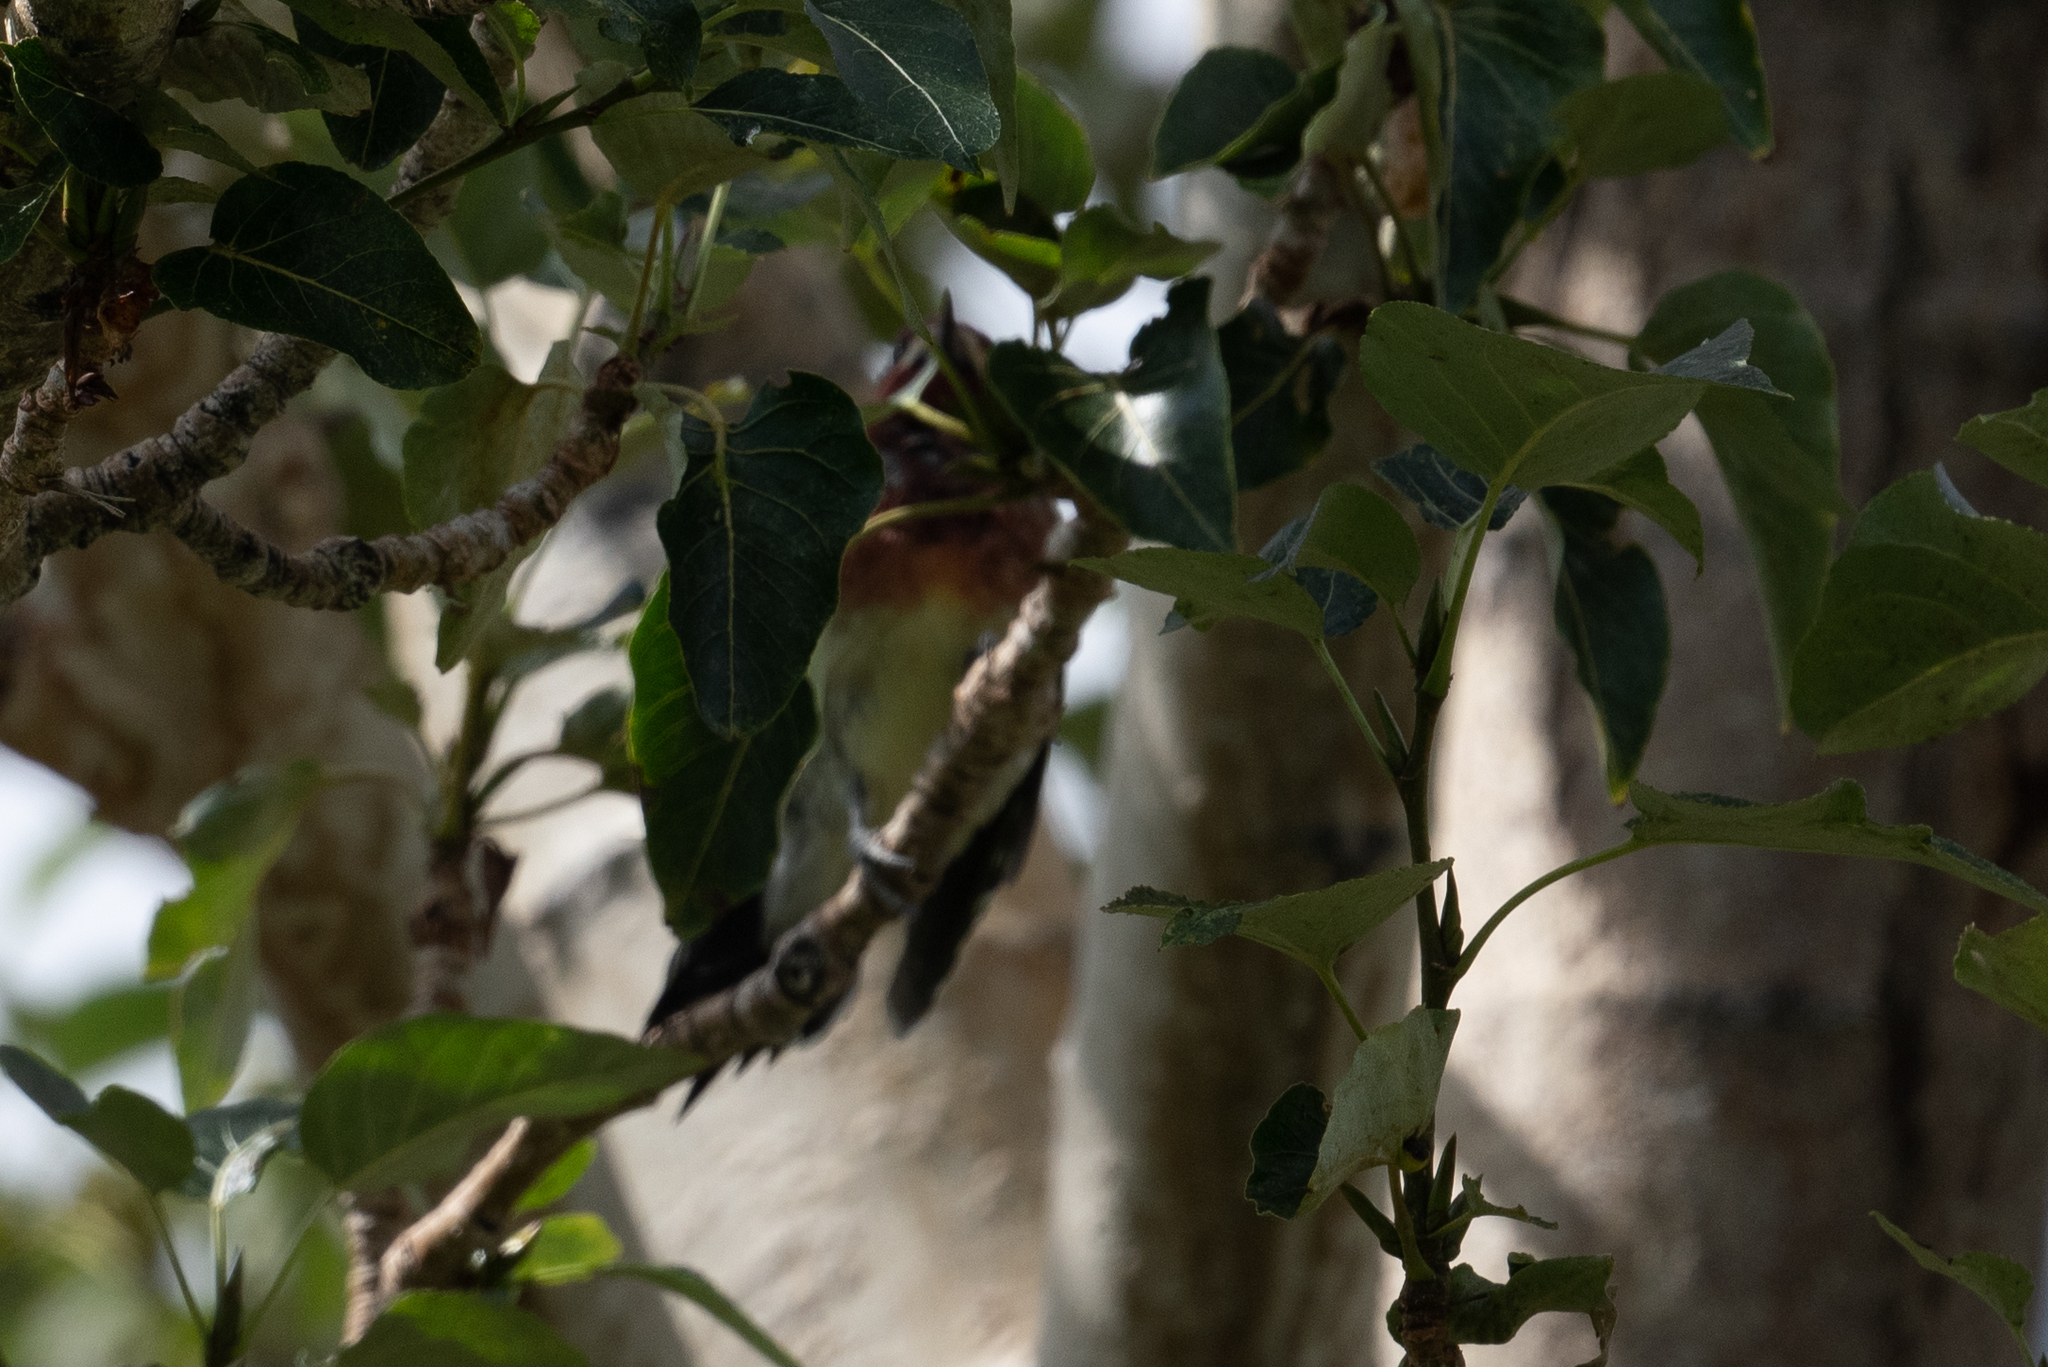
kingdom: Animalia
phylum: Chordata
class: Aves
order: Piciformes
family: Picidae
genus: Sphyrapicus
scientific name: Sphyrapicus ruber
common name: Red-breasted sapsucker
